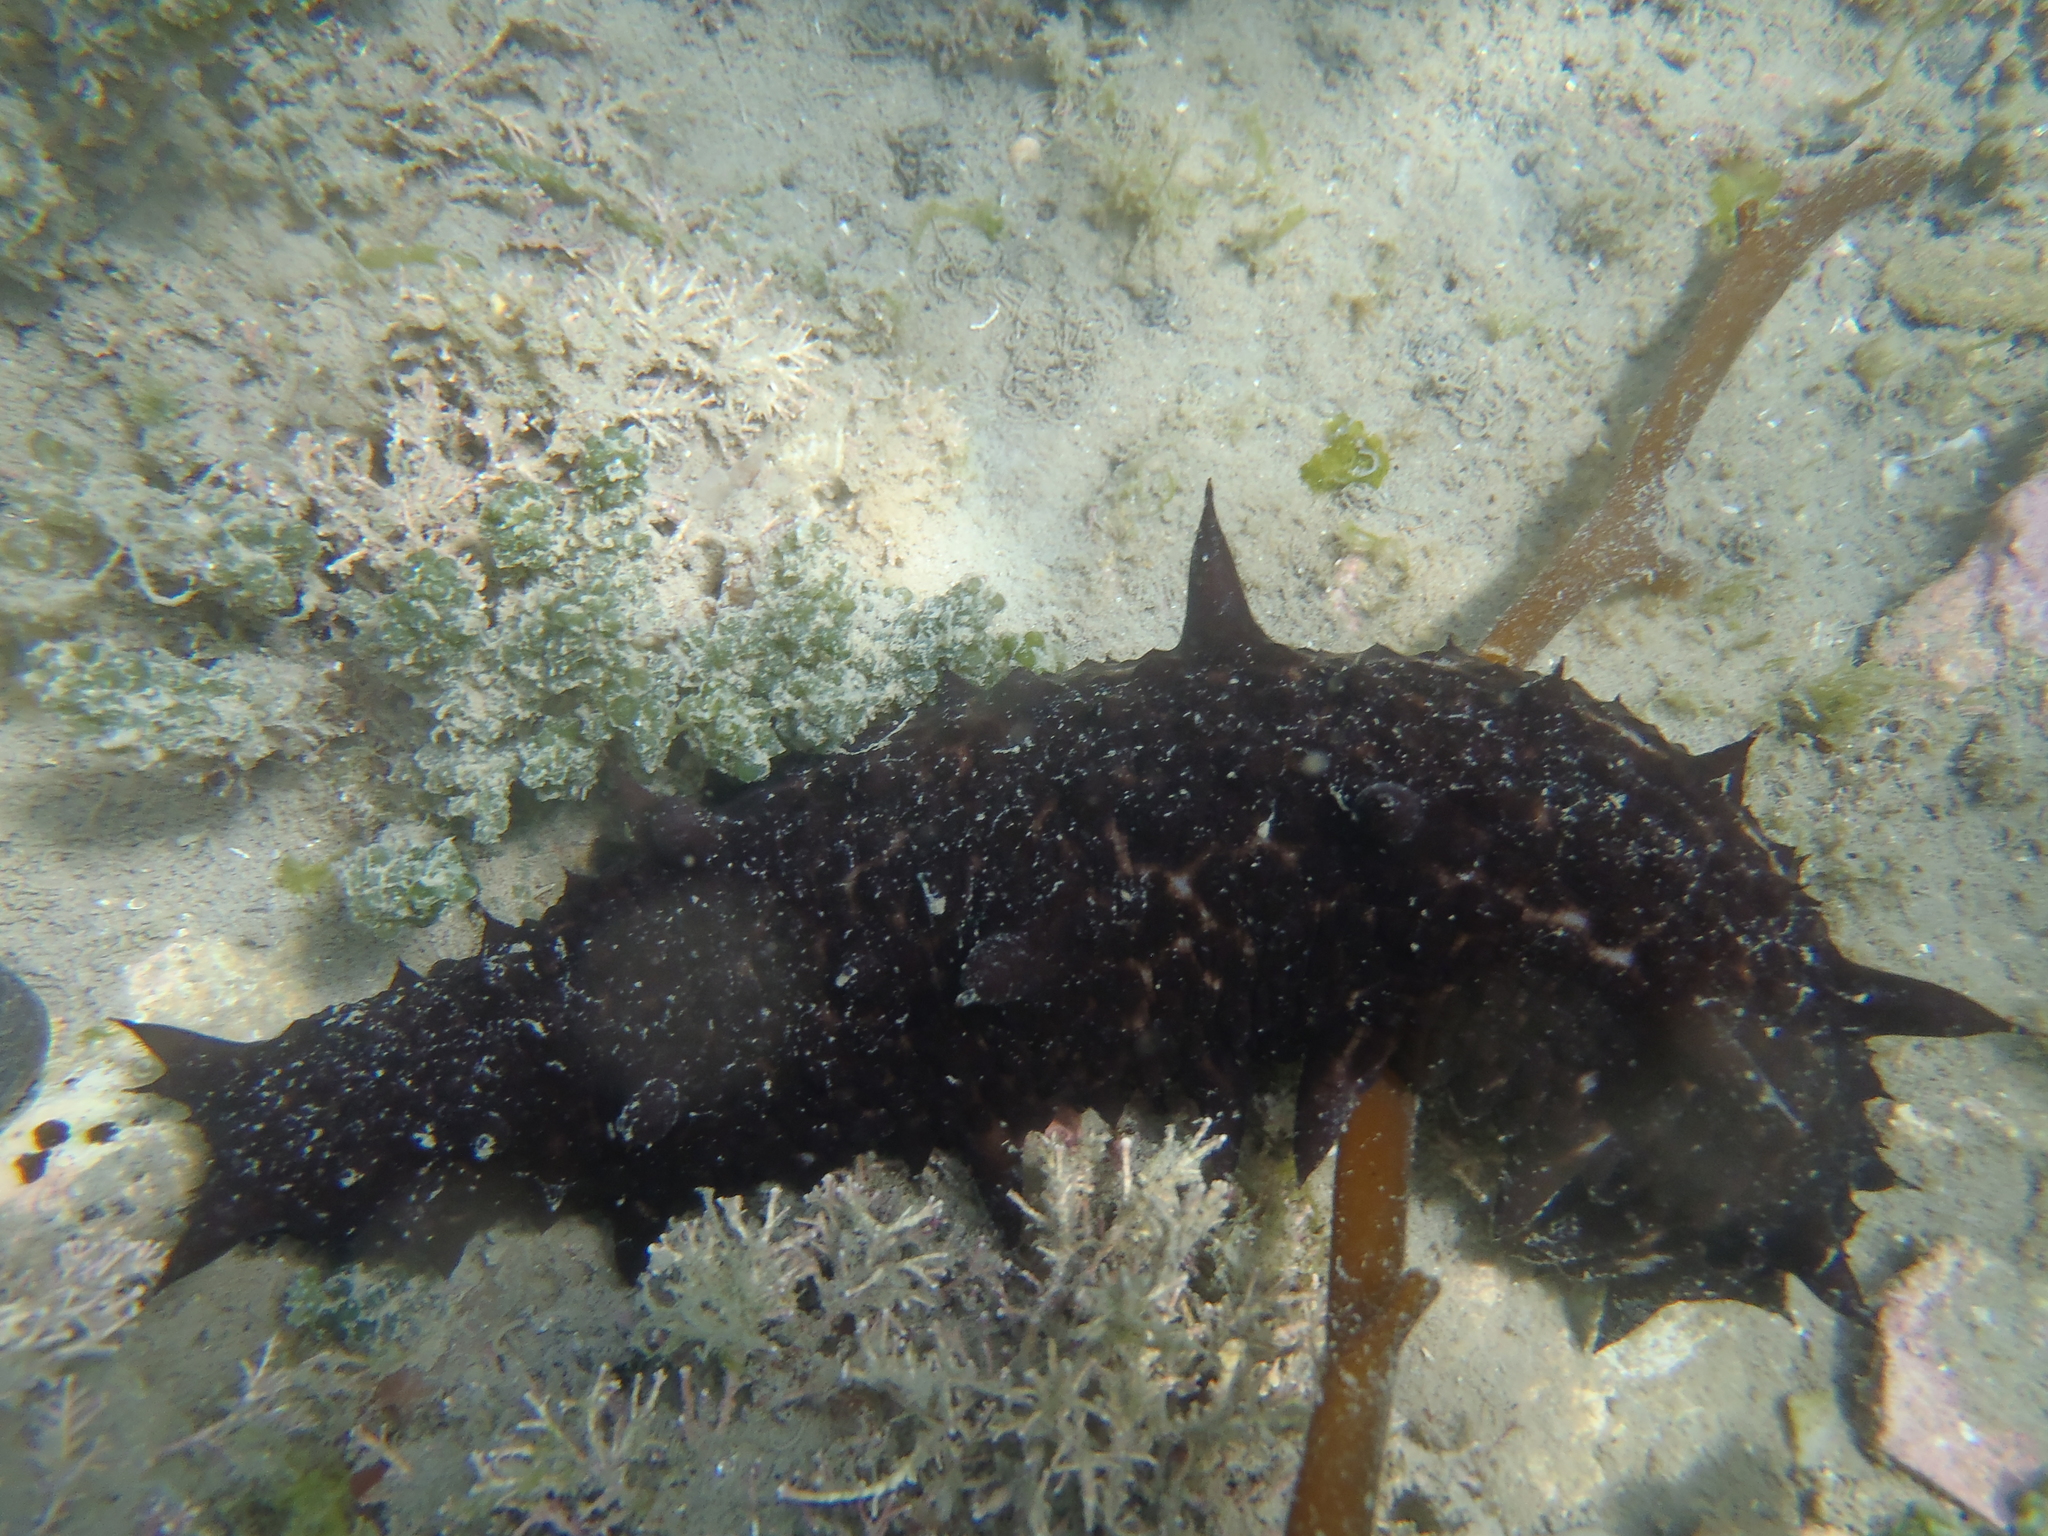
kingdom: Animalia
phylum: Echinodermata
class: Holothuroidea
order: Synallactida
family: Stichopodidae
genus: Australostichopus
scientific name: Australostichopus mollis
